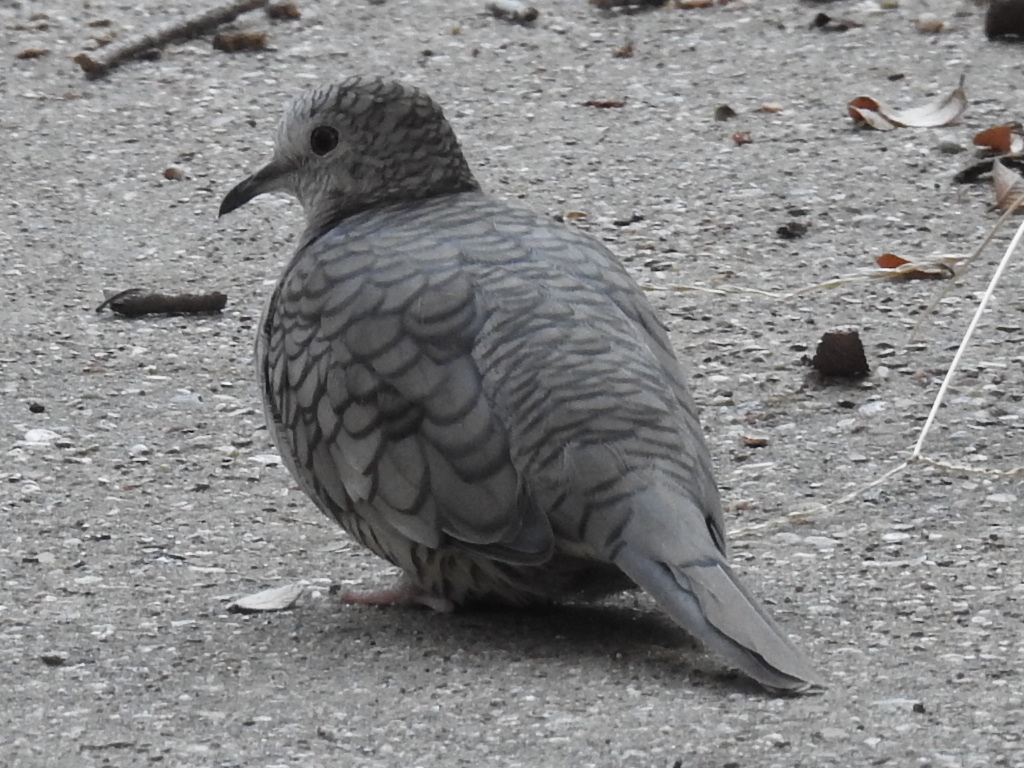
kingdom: Animalia
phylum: Chordata
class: Aves
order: Columbiformes
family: Columbidae
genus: Columbina
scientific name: Columbina inca
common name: Inca dove
